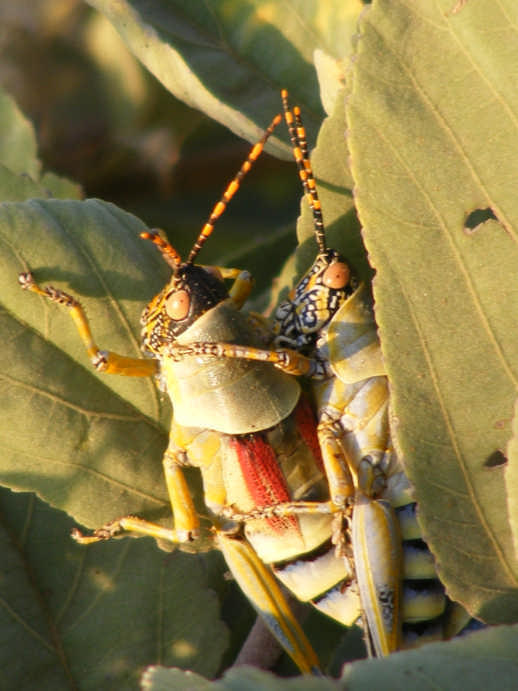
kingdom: Animalia
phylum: Arthropoda
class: Insecta
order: Orthoptera
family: Pyrgomorphidae
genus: Zonocerus
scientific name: Zonocerus elegans
